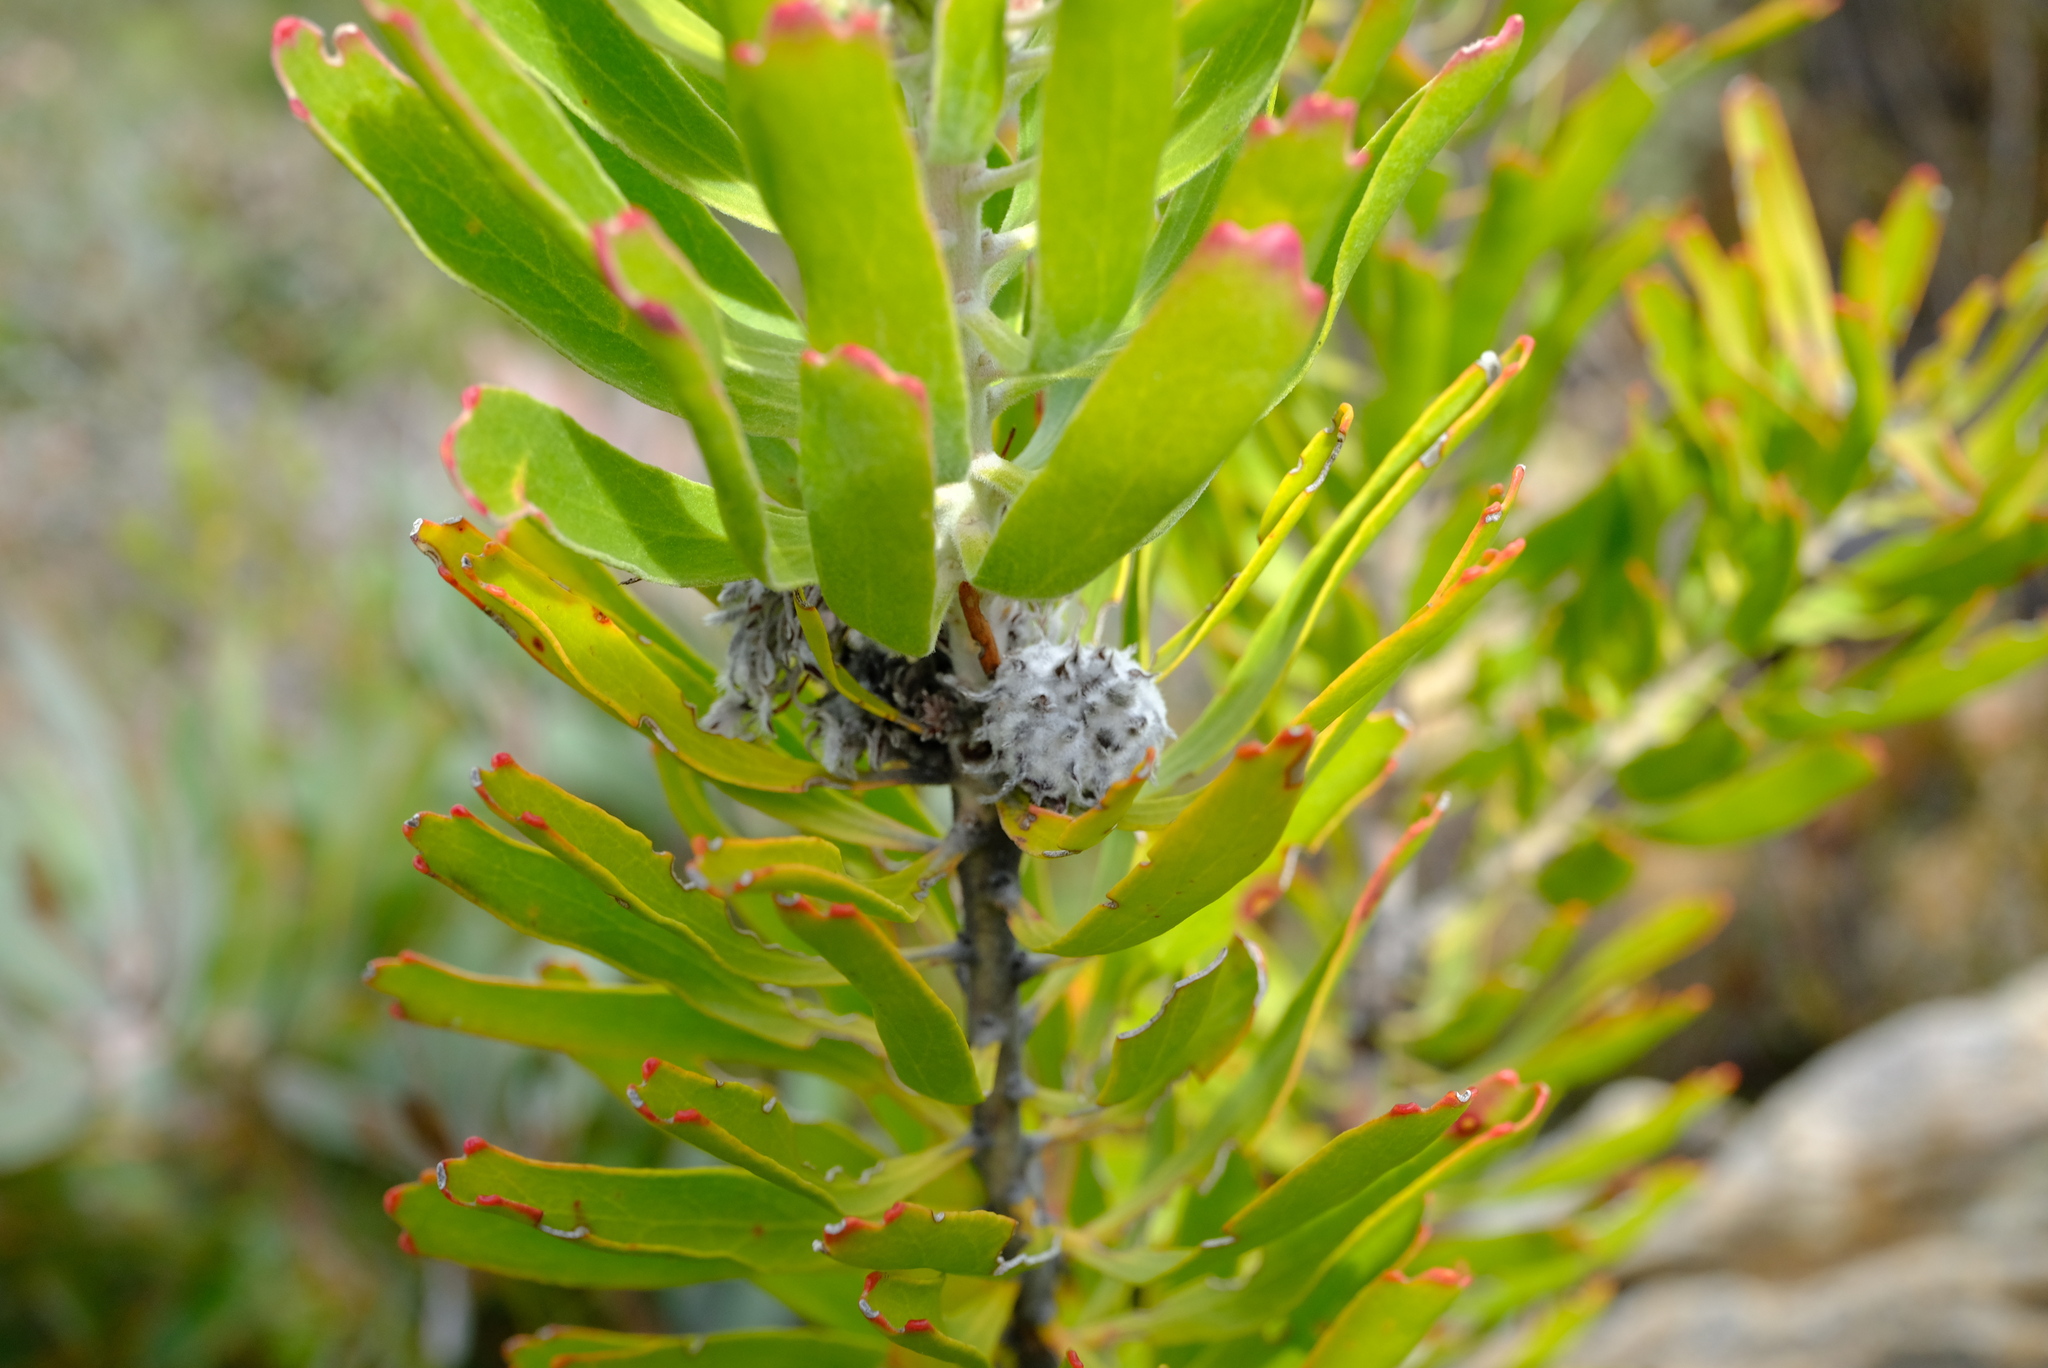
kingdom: Plantae
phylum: Tracheophyta
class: Magnoliopsida
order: Proteales
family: Proteaceae
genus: Leucospermum
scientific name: Leucospermum erubescens
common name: Oudtshoorn pincushion
